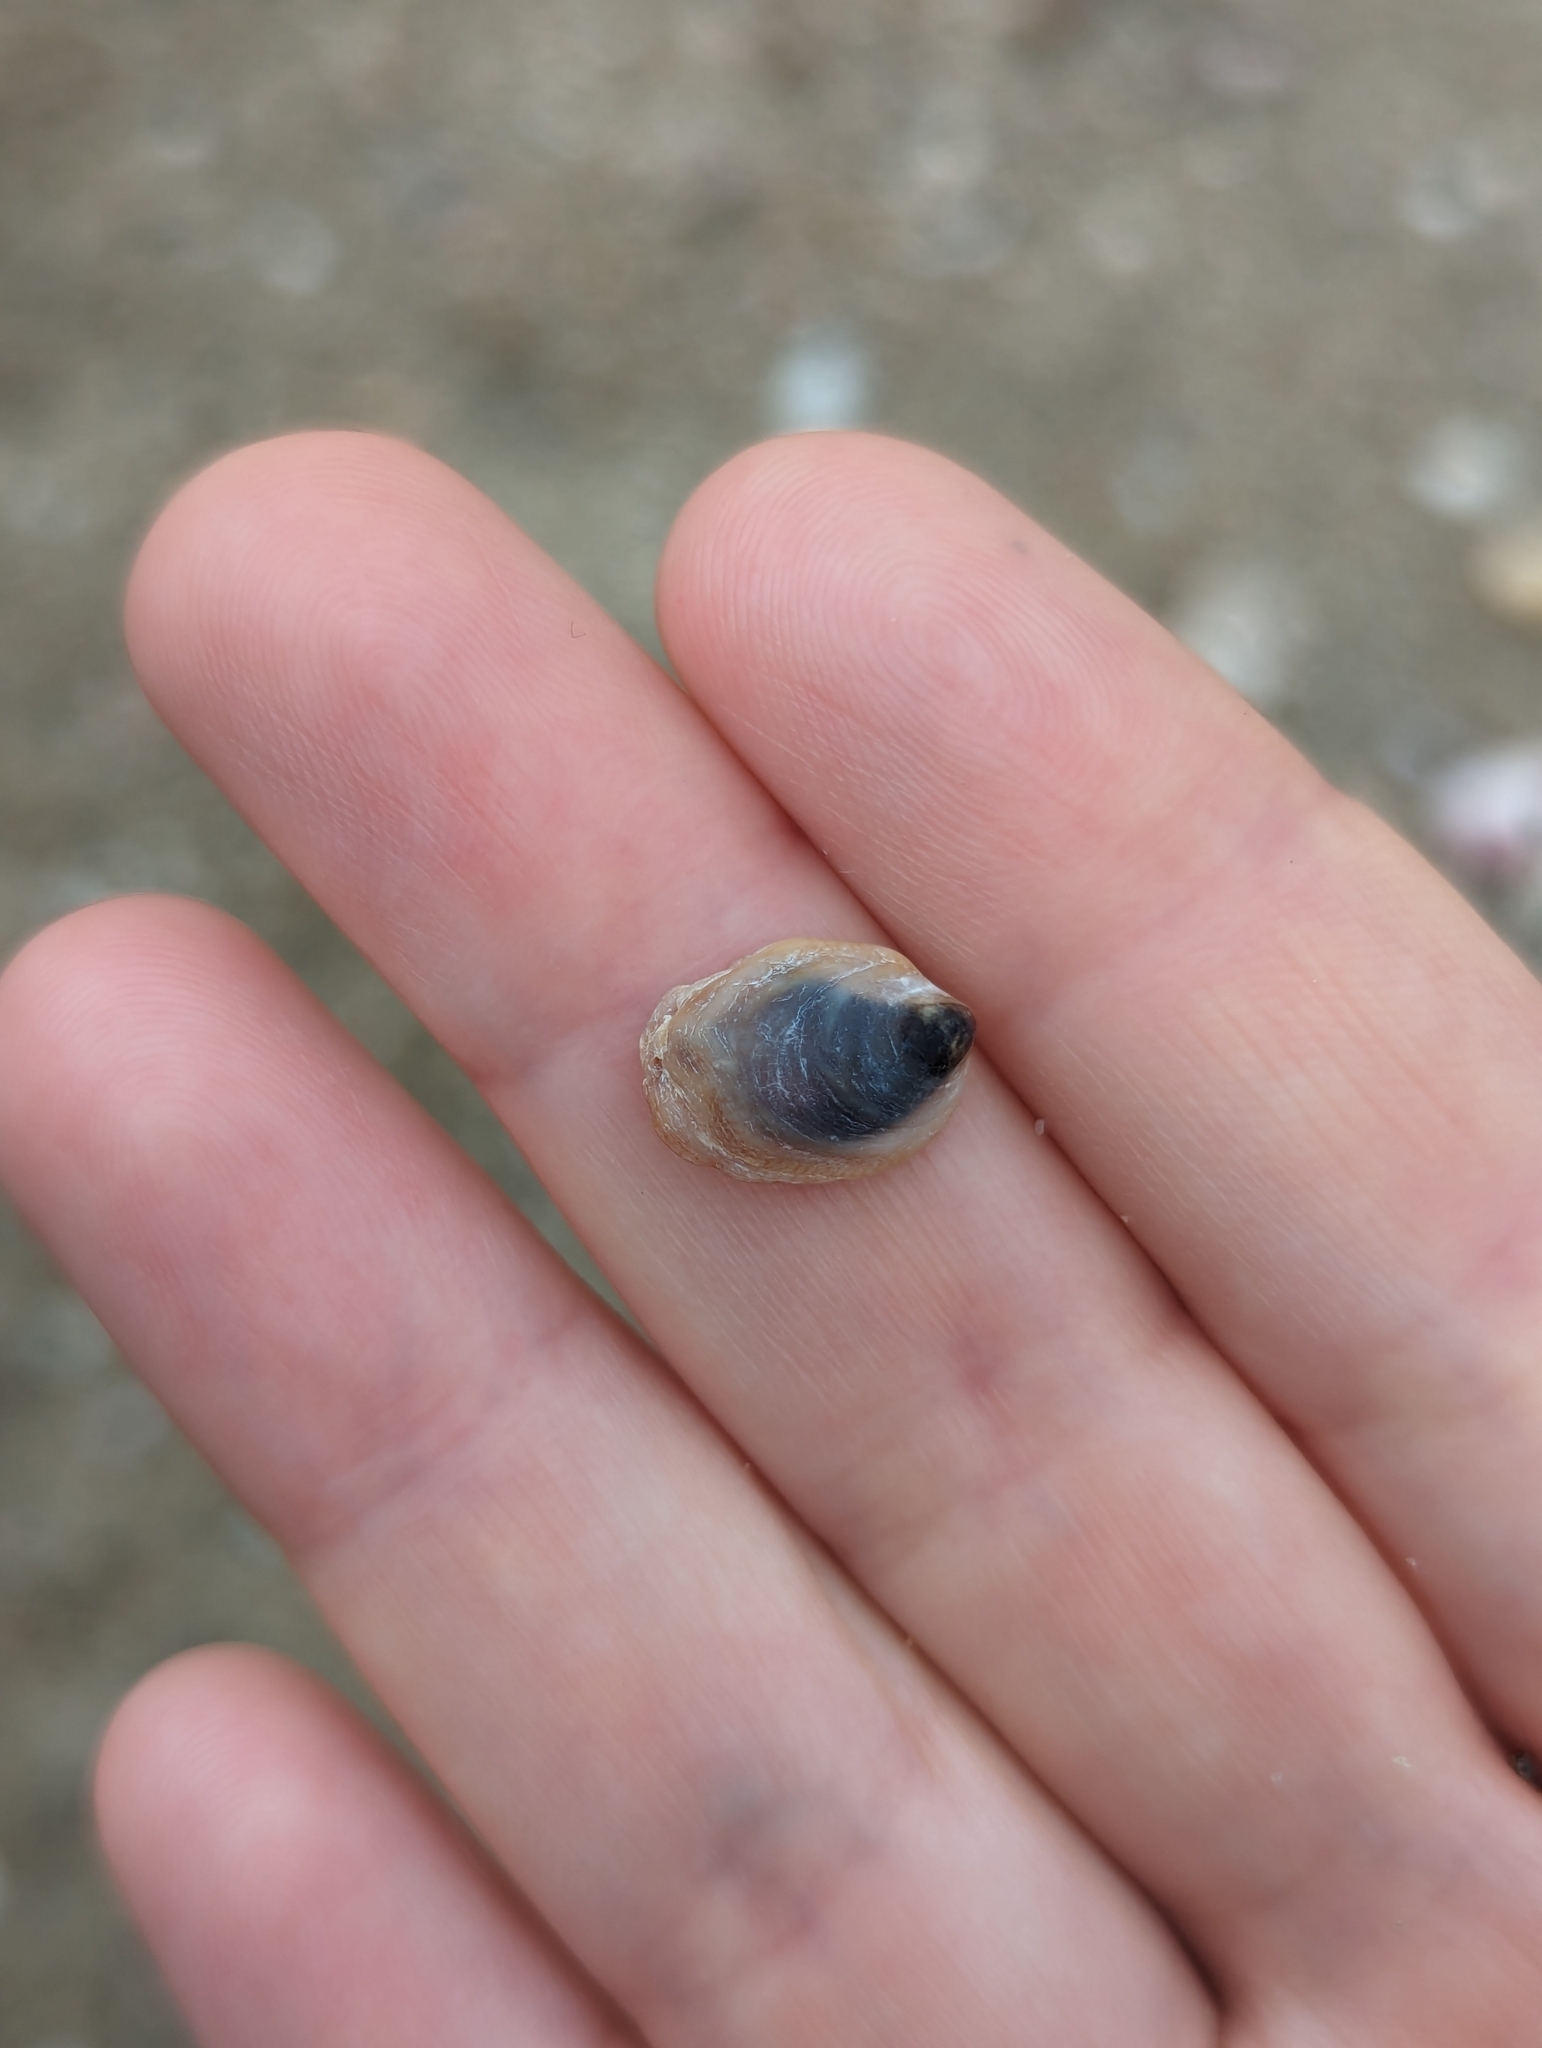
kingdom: Animalia
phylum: Mollusca
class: Gastropoda
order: Littorinimorpha
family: Calyptraeidae
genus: Crepidula
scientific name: Crepidula onyx
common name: Onyx slippersnail
